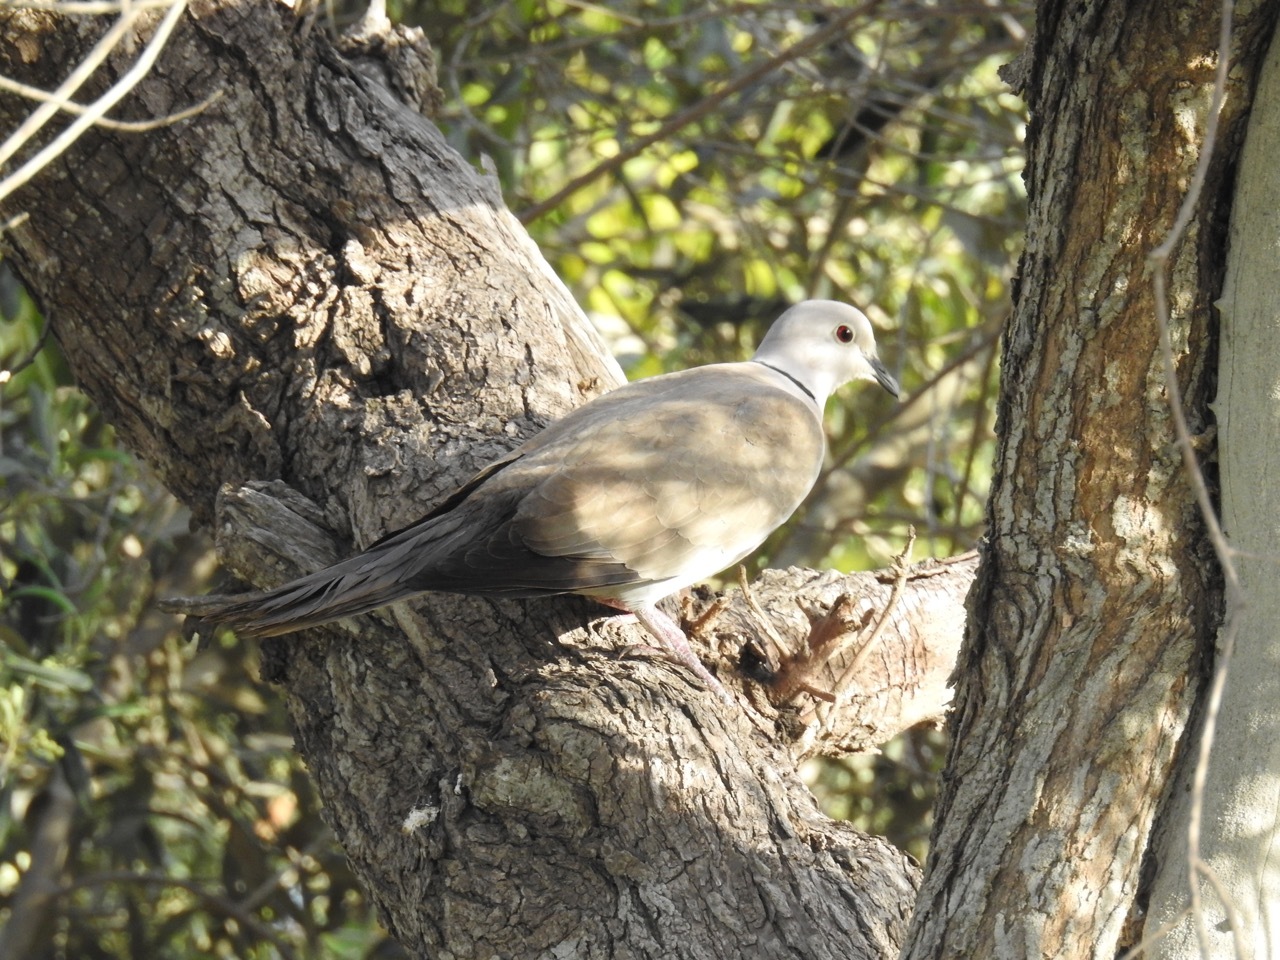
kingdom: Animalia
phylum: Chordata
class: Aves
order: Columbiformes
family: Columbidae
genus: Streptopelia
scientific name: Streptopelia decaocto
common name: Eurasian collared dove
